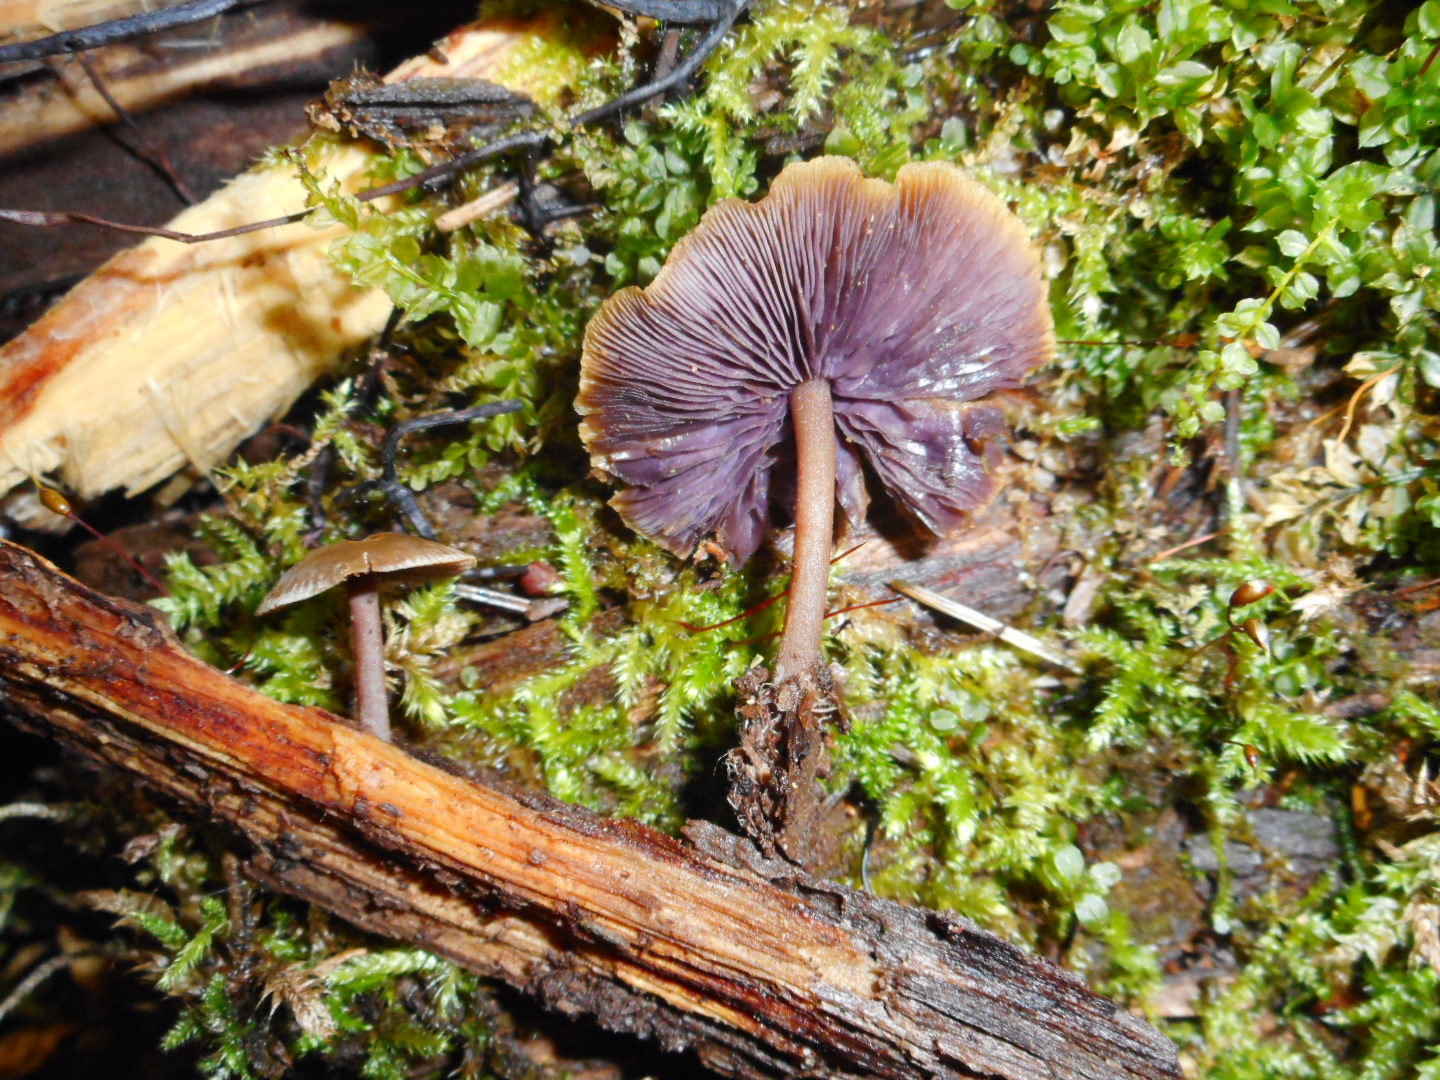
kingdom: Fungi
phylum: Basidiomycota
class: Agaricomycetes
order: Agaricales
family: Marasmiaceae
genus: Baeospora
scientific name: Baeospora myriadophylla
